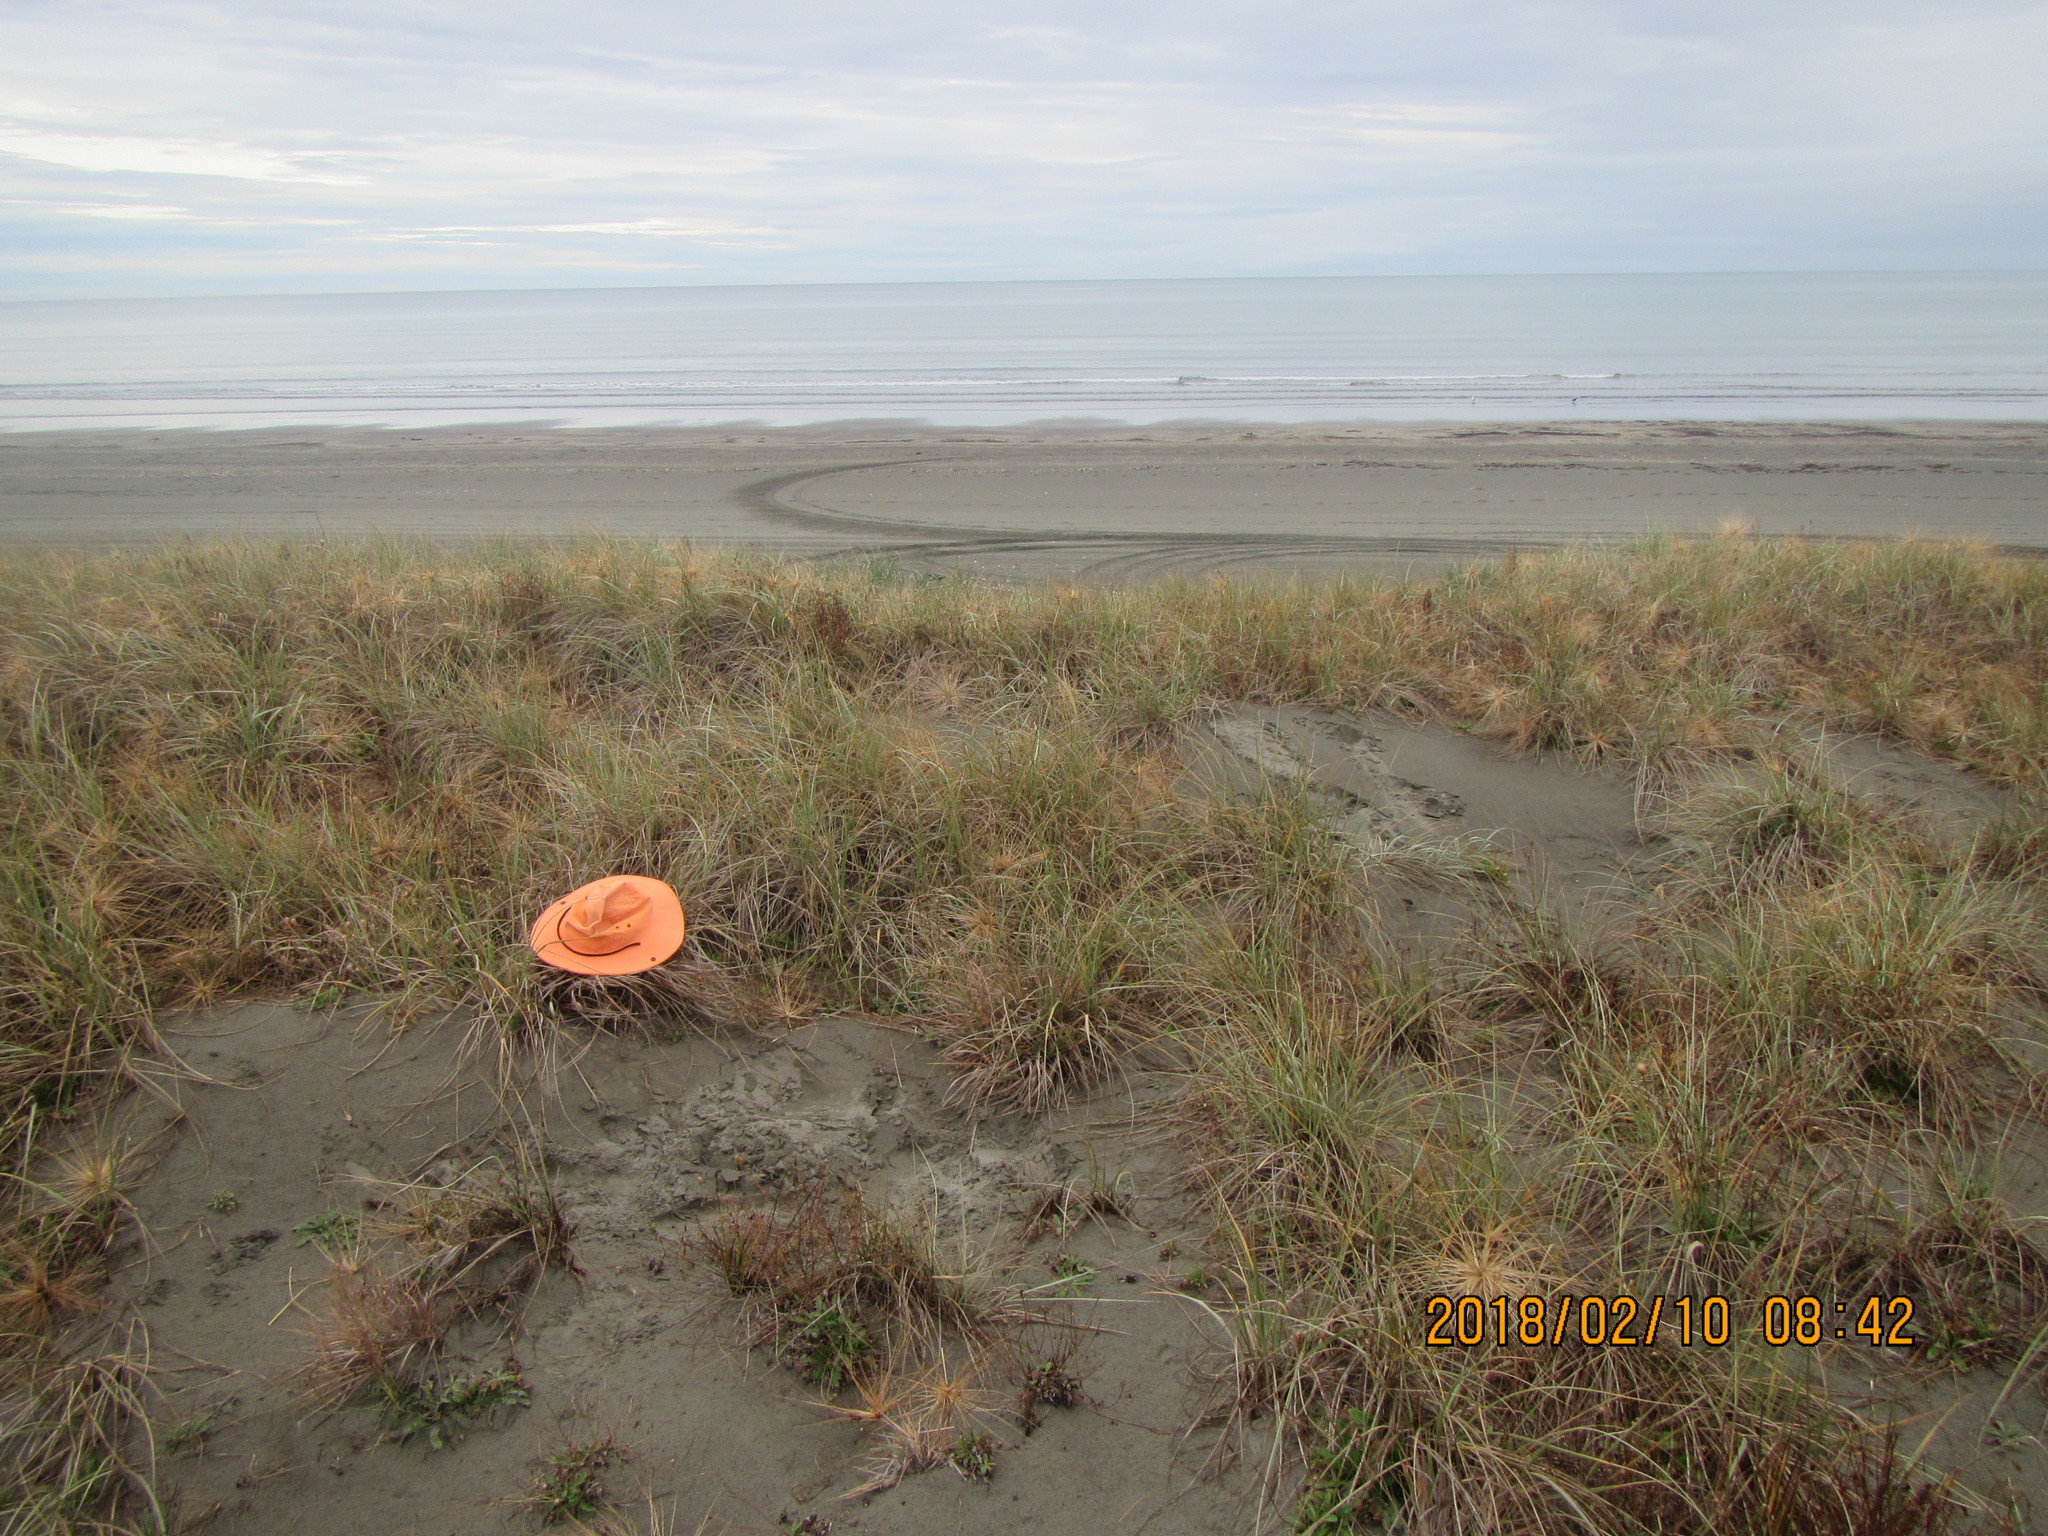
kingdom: Animalia
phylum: Arthropoda
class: Arachnida
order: Araneae
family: Theridiidae
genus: Steatoda
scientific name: Steatoda capensis
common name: Cobweb weaver
